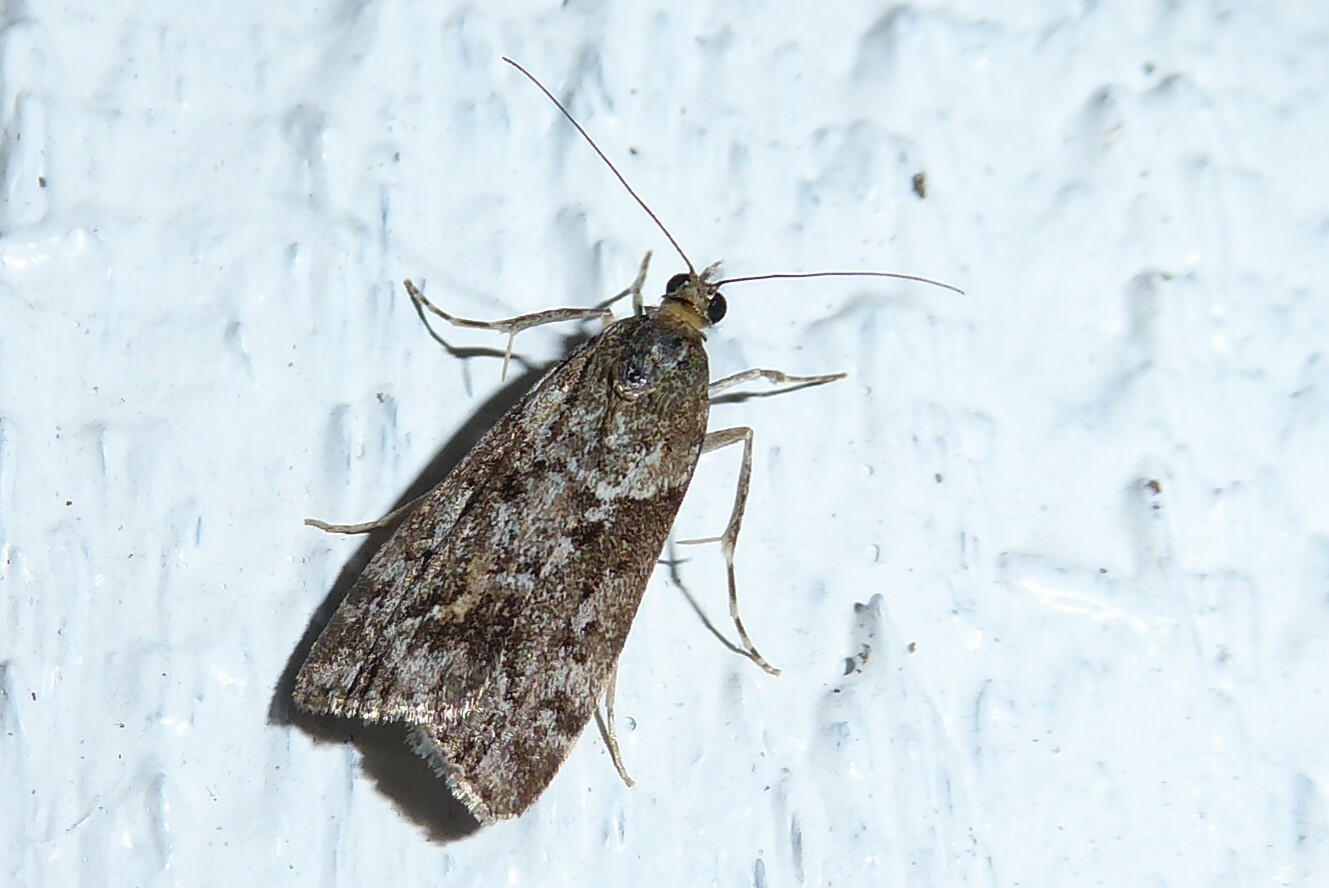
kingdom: Animalia
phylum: Arthropoda
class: Insecta
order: Lepidoptera
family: Crambidae
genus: Eudonia
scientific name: Eudonia submarginalis
